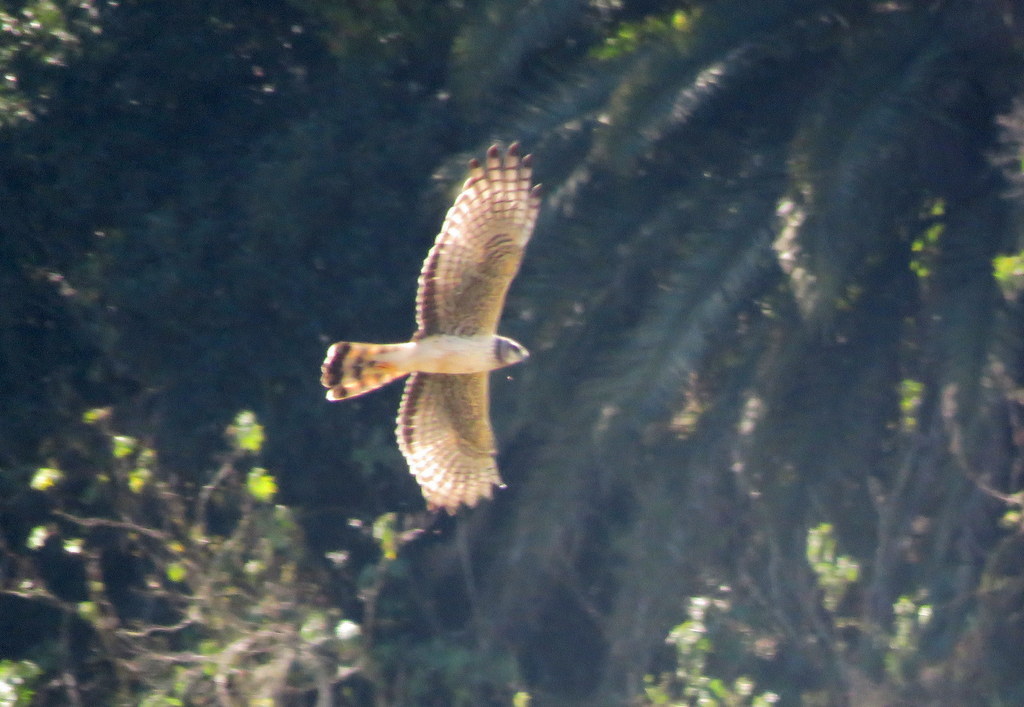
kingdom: Animalia
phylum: Chordata
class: Aves
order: Accipitriformes
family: Accipitridae
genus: Circus
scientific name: Circus buffoni
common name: Long-winged harrier
